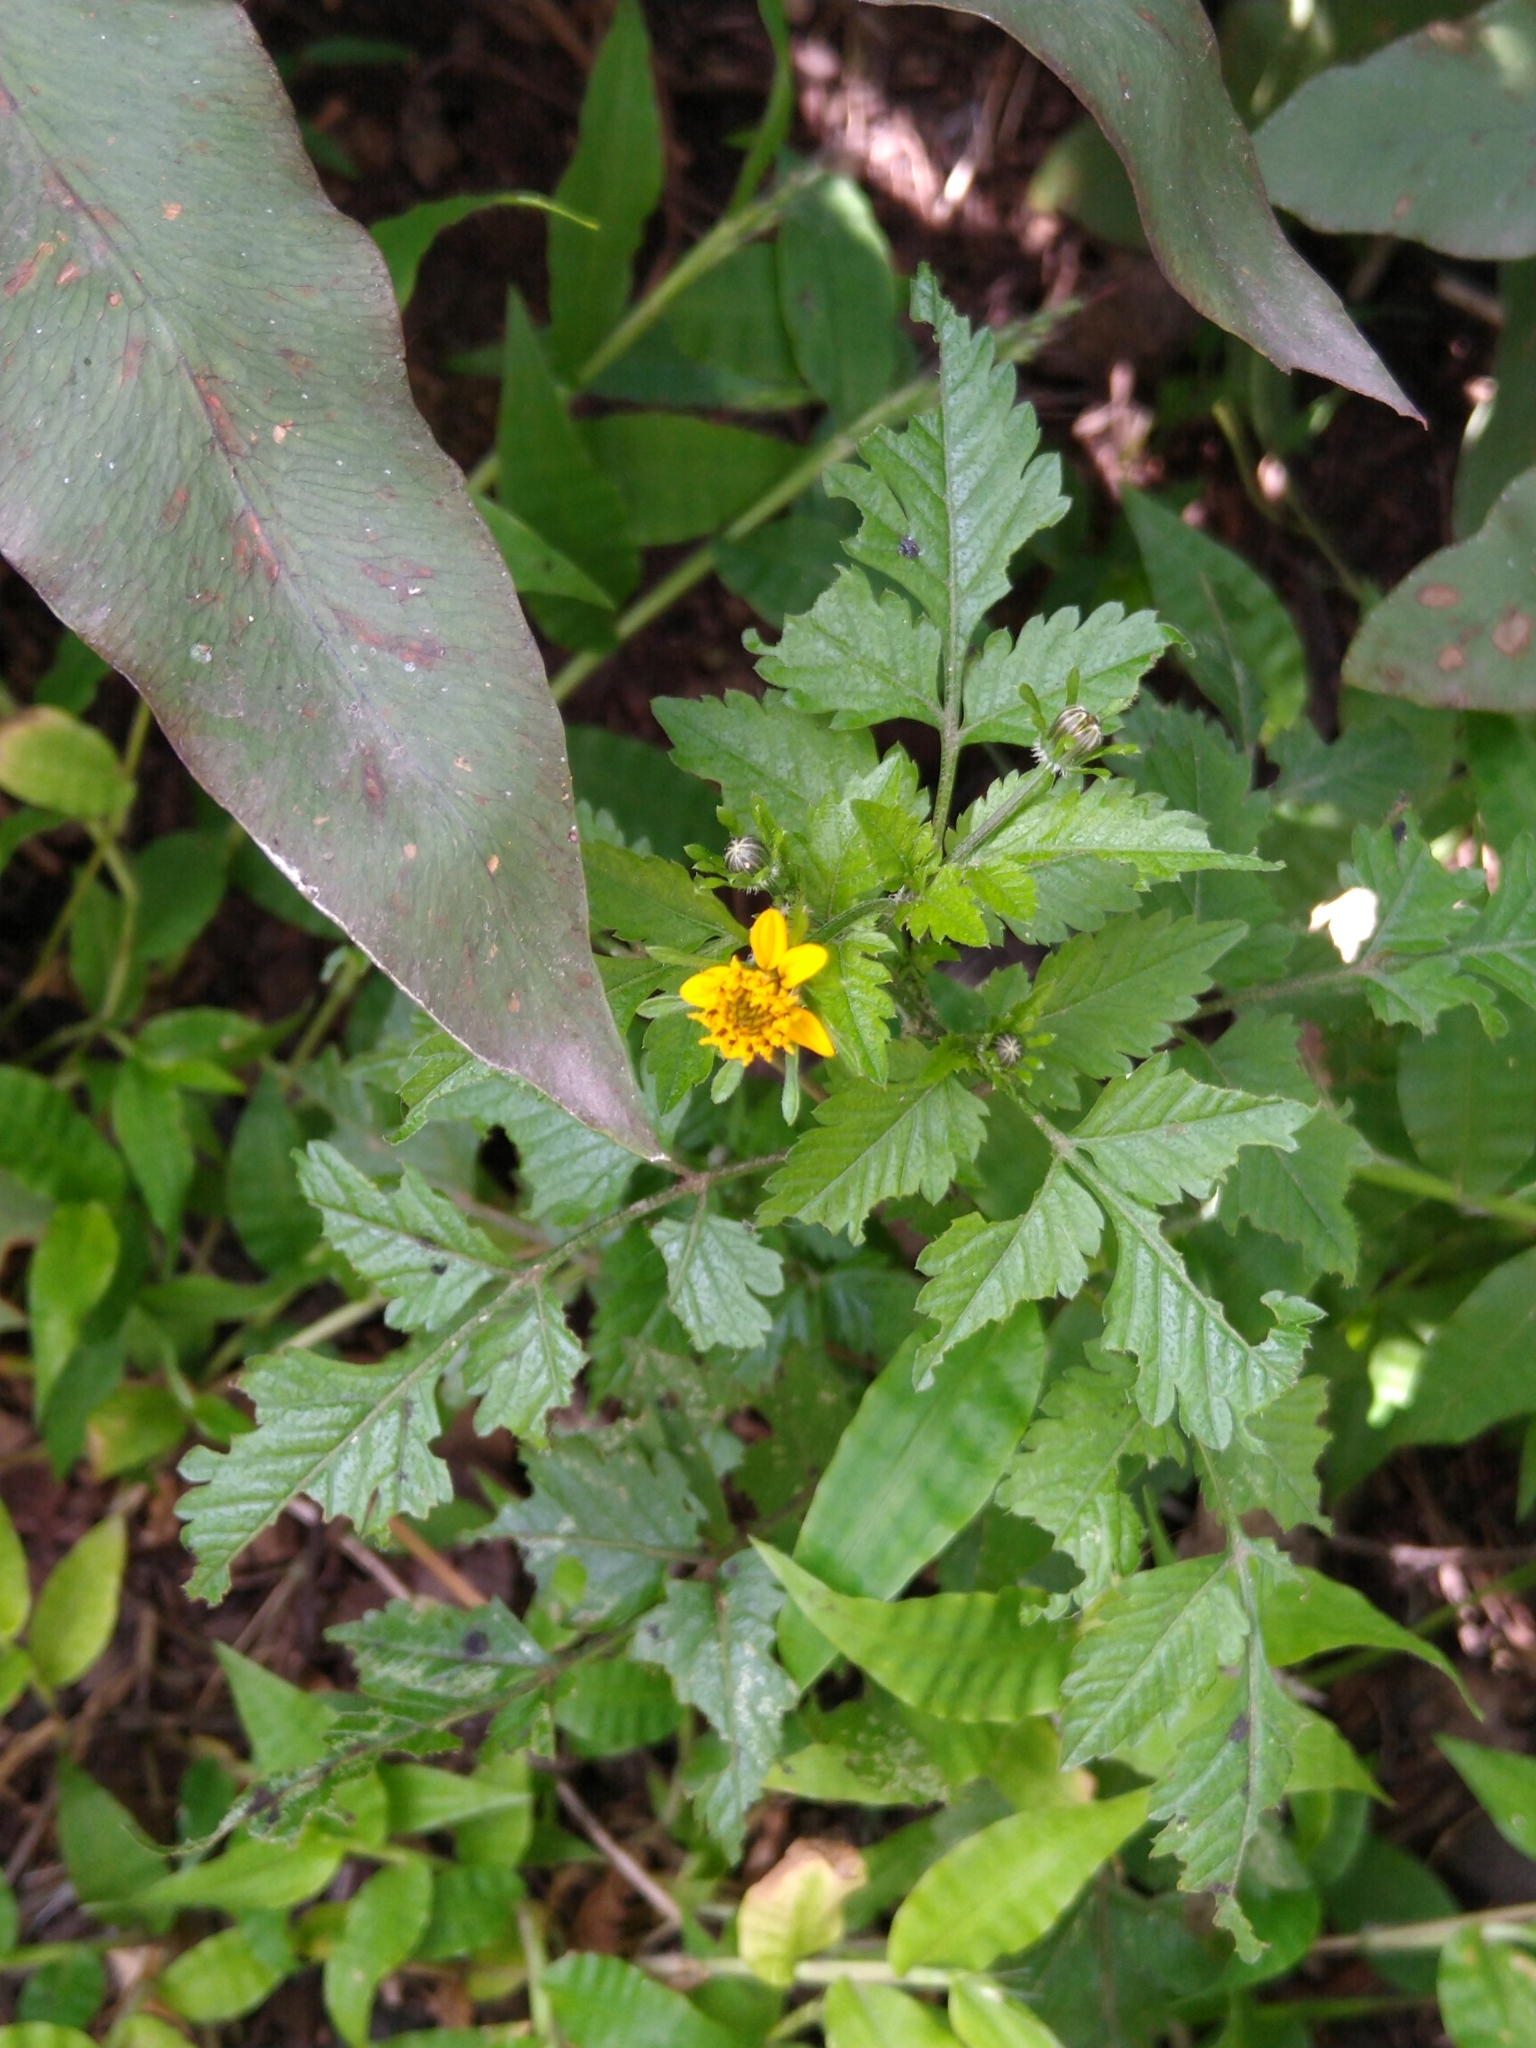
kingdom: Plantae
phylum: Tracheophyta
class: Magnoliopsida
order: Asterales
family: Asteraceae
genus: Bidens
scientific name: Bidens bigelovii
